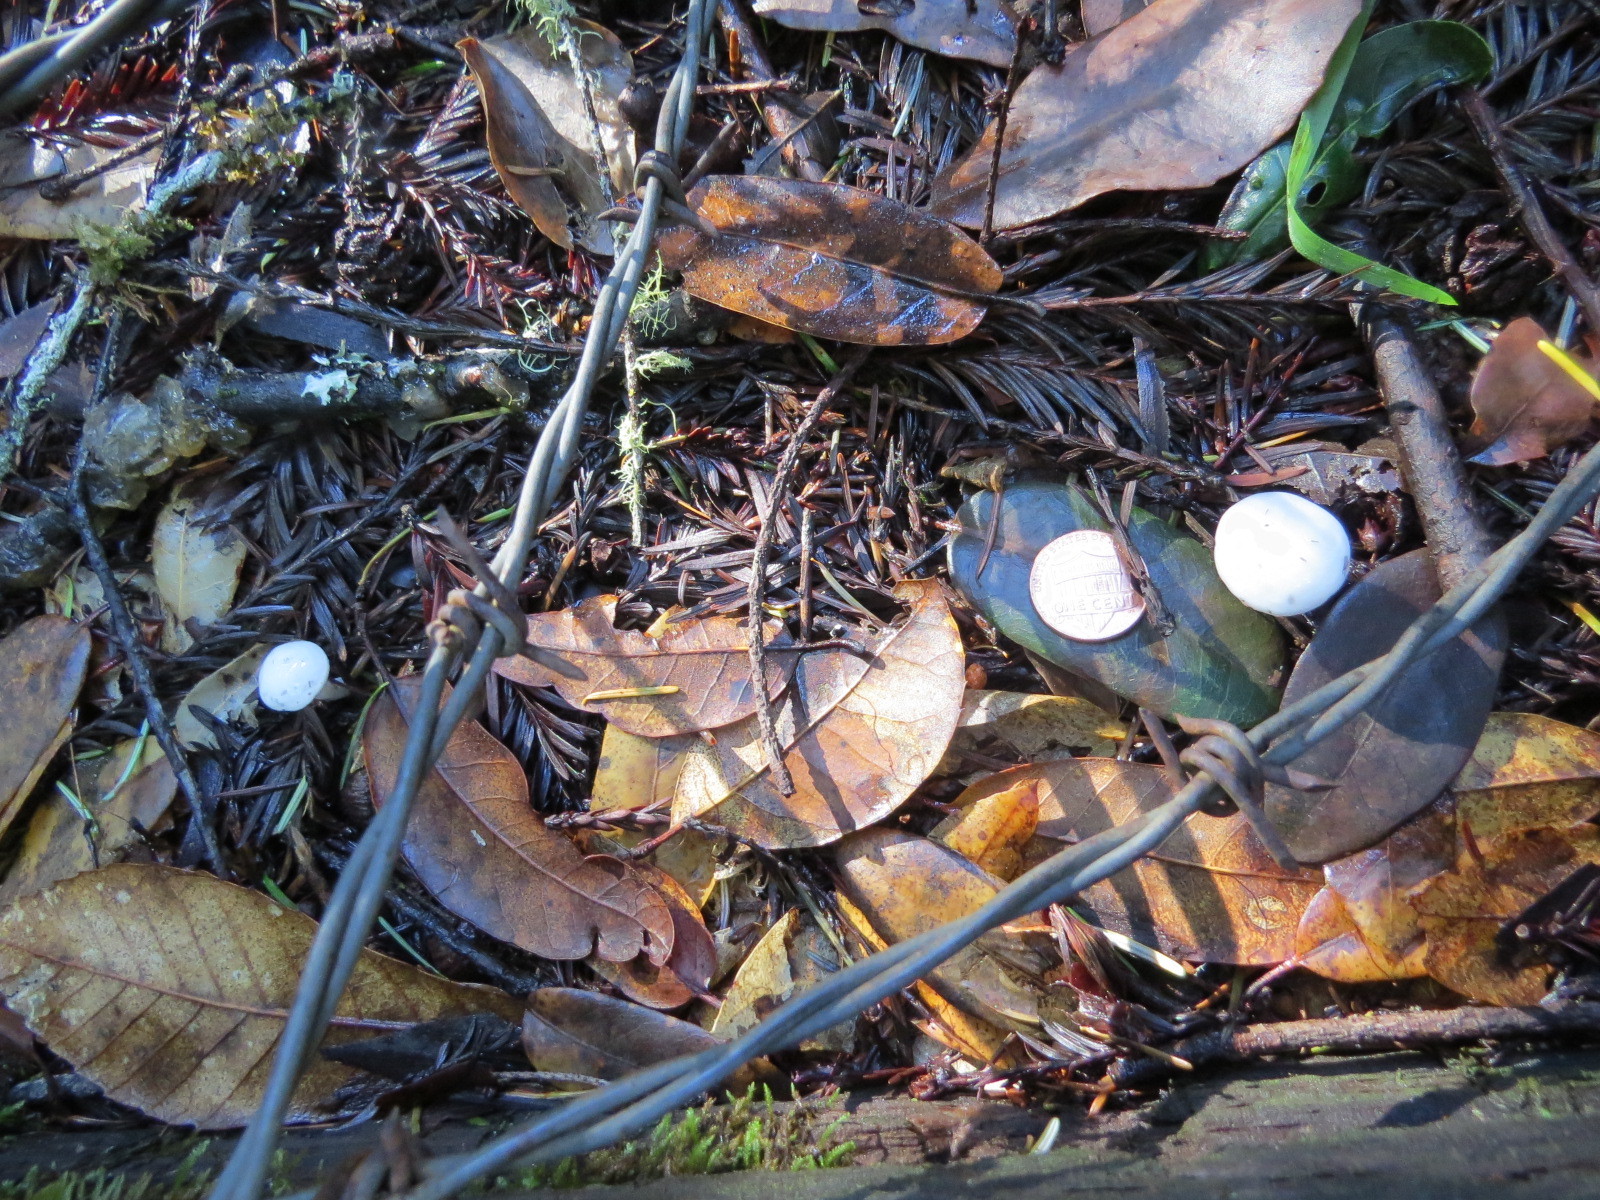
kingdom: Fungi
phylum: Basidiomycota
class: Agaricomycetes
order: Agaricales
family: Hygrophoraceae
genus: Hygrophorus
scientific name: Hygrophorus eburneus
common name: Ivory wax-cap
